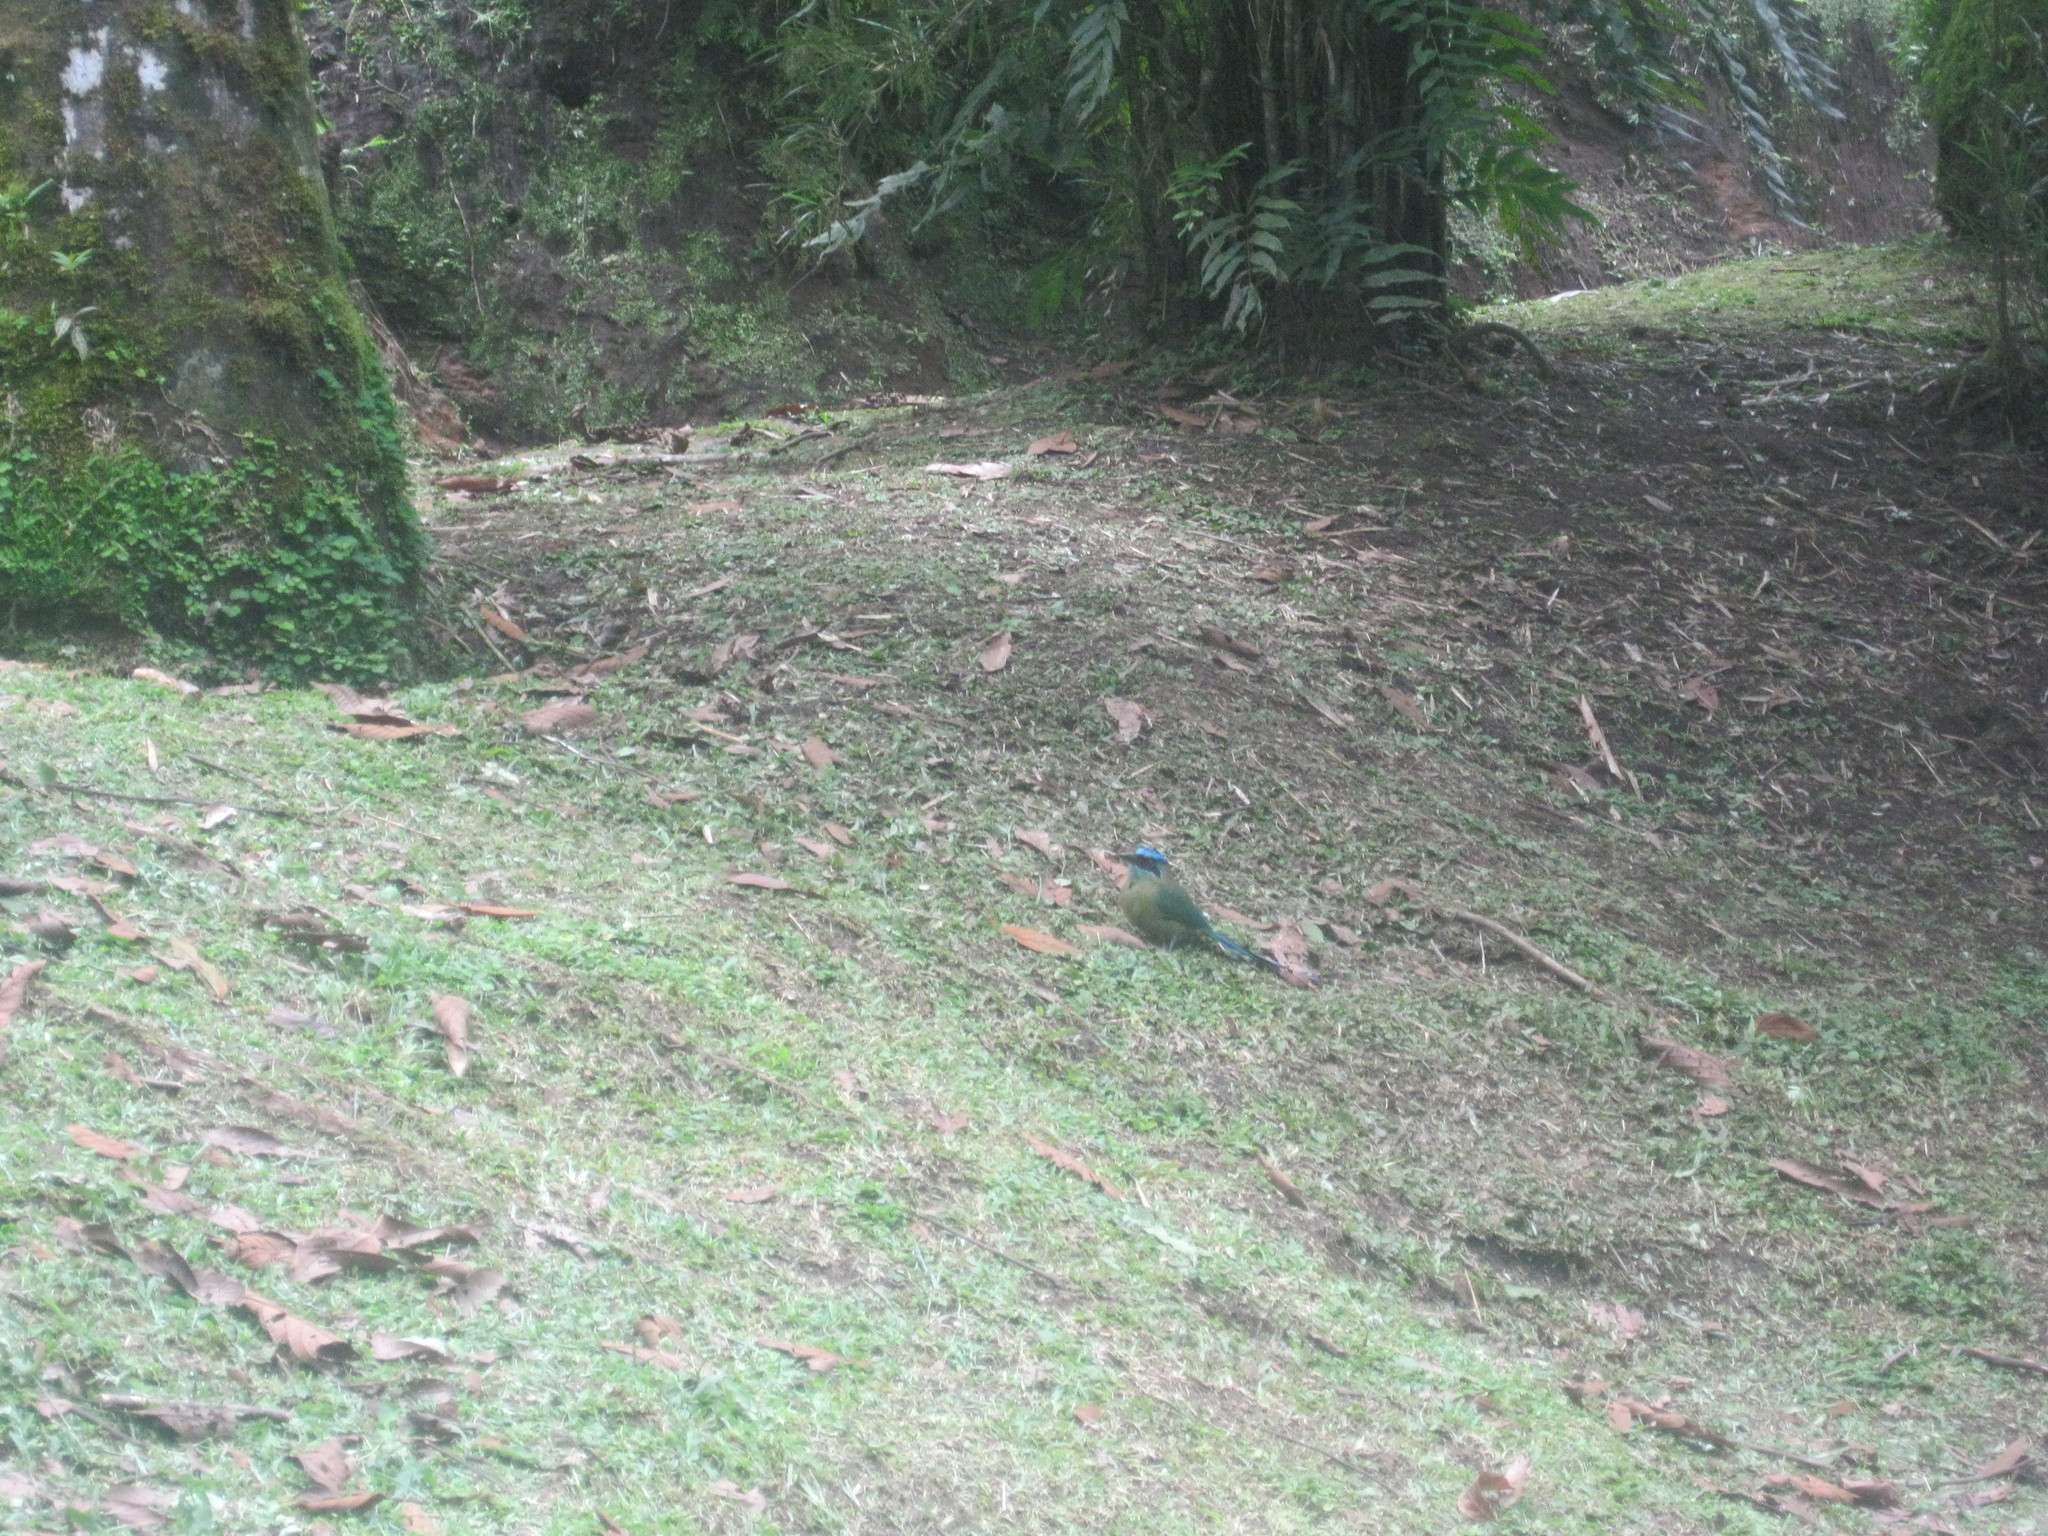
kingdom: Animalia
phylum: Chordata
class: Aves
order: Coraciiformes
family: Momotidae
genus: Momotus
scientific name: Momotus lessonii
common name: Lesson's motmot
